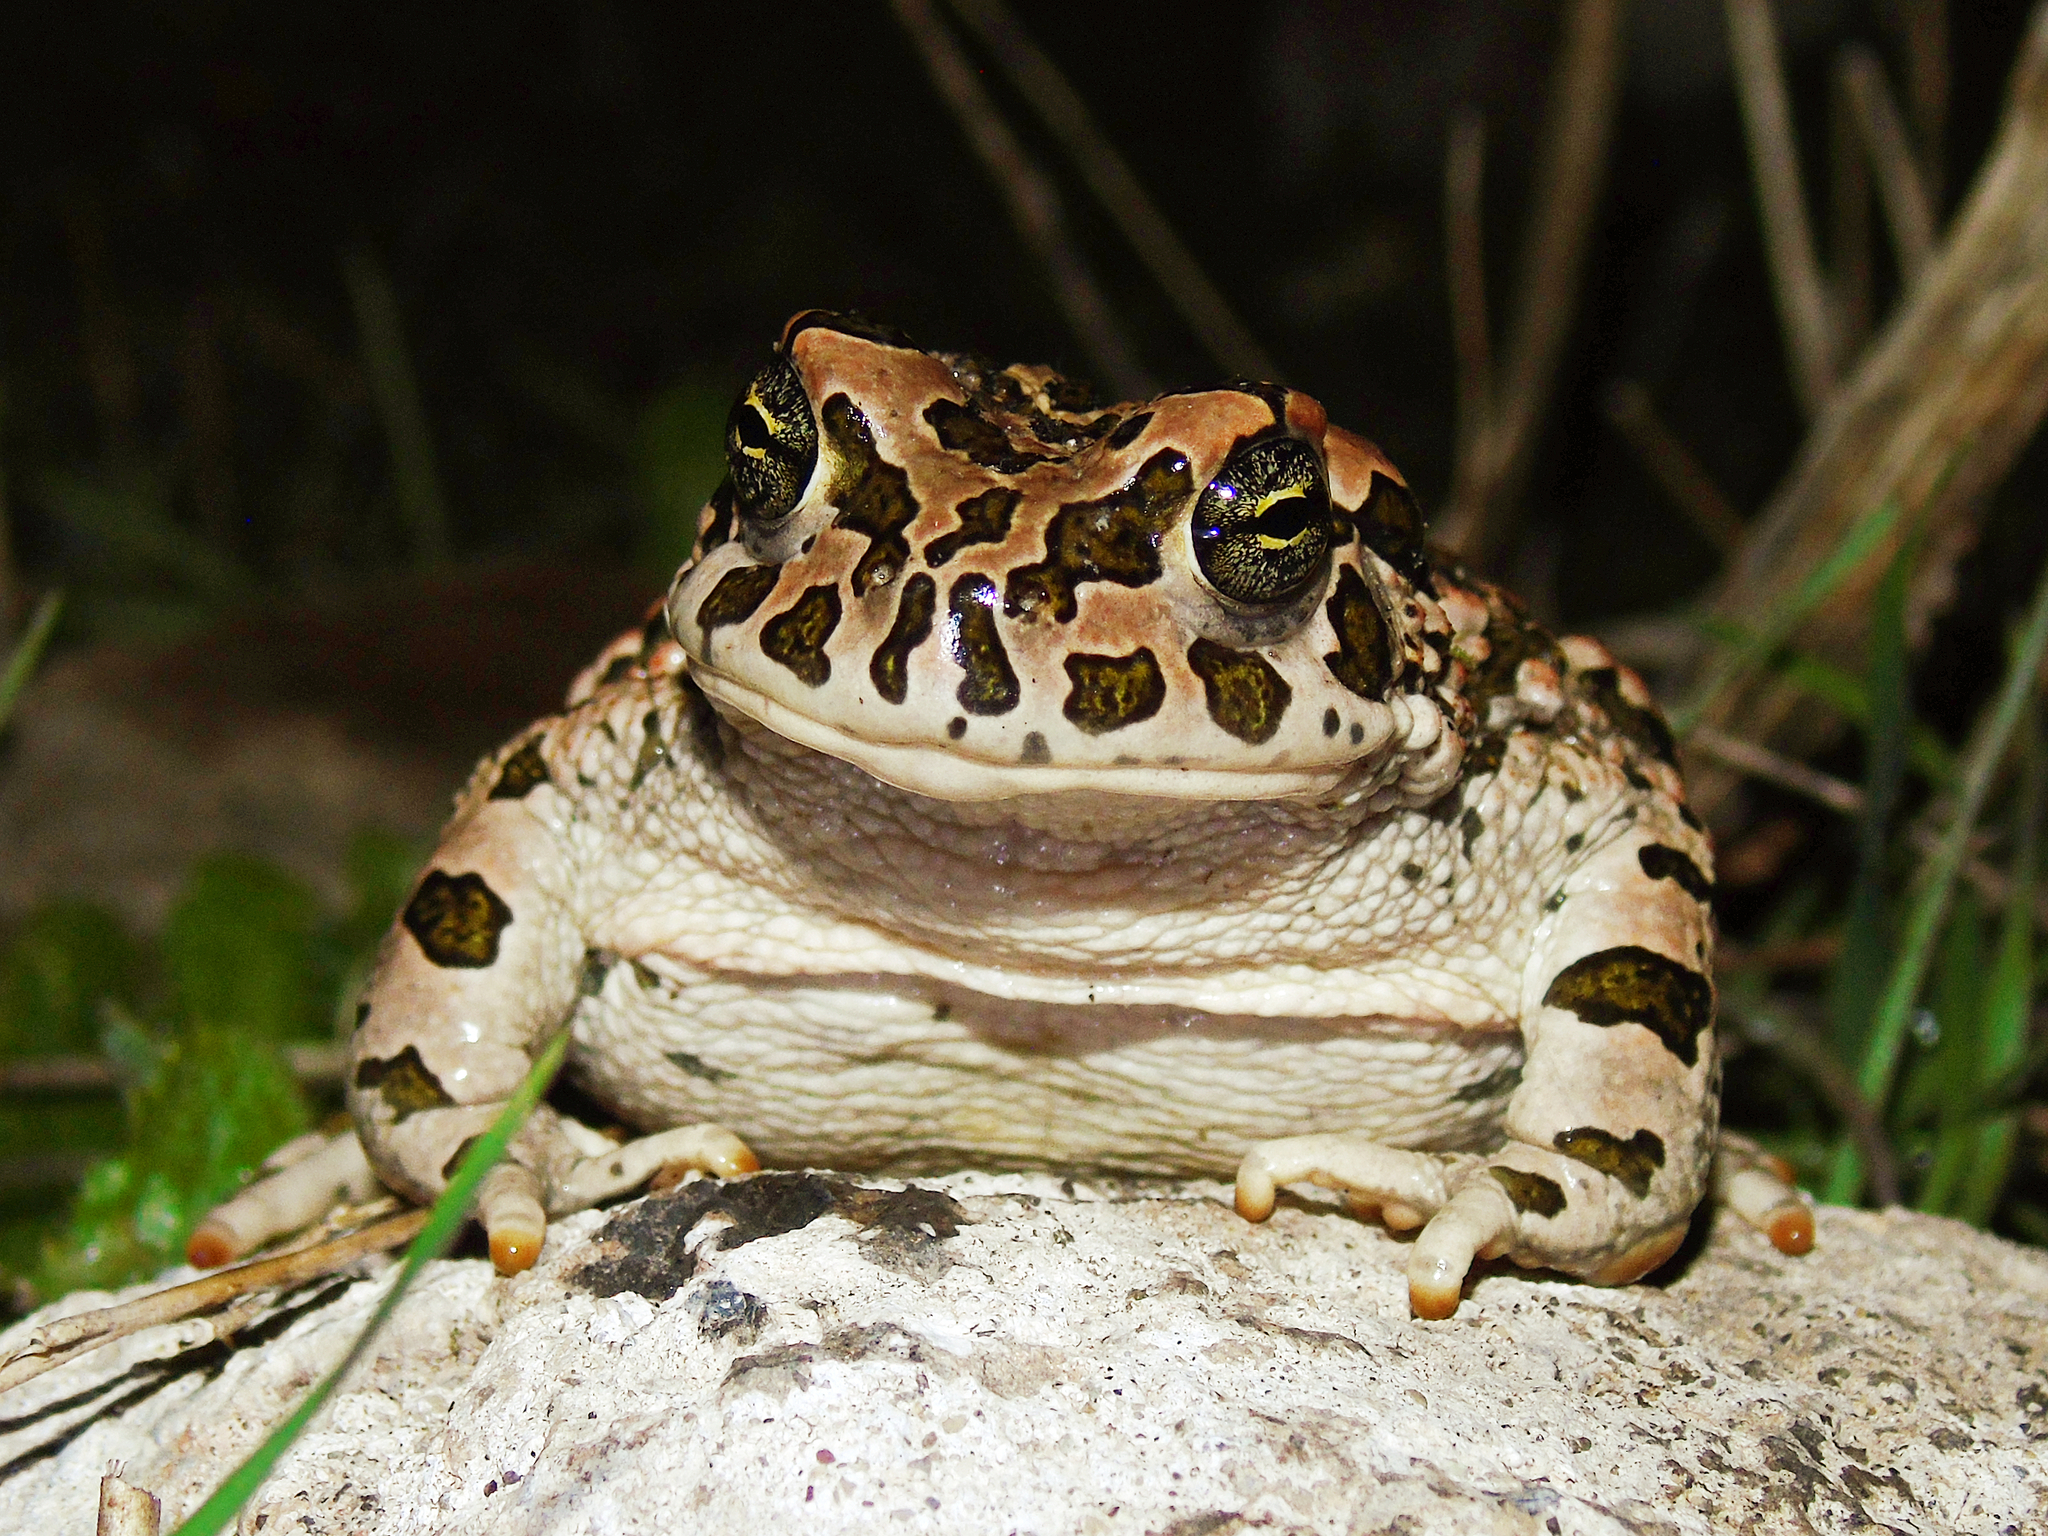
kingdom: Animalia
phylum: Chordata
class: Amphibia
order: Anura
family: Bufonidae
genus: Bufotes
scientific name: Bufotes viridis
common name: European green toad
